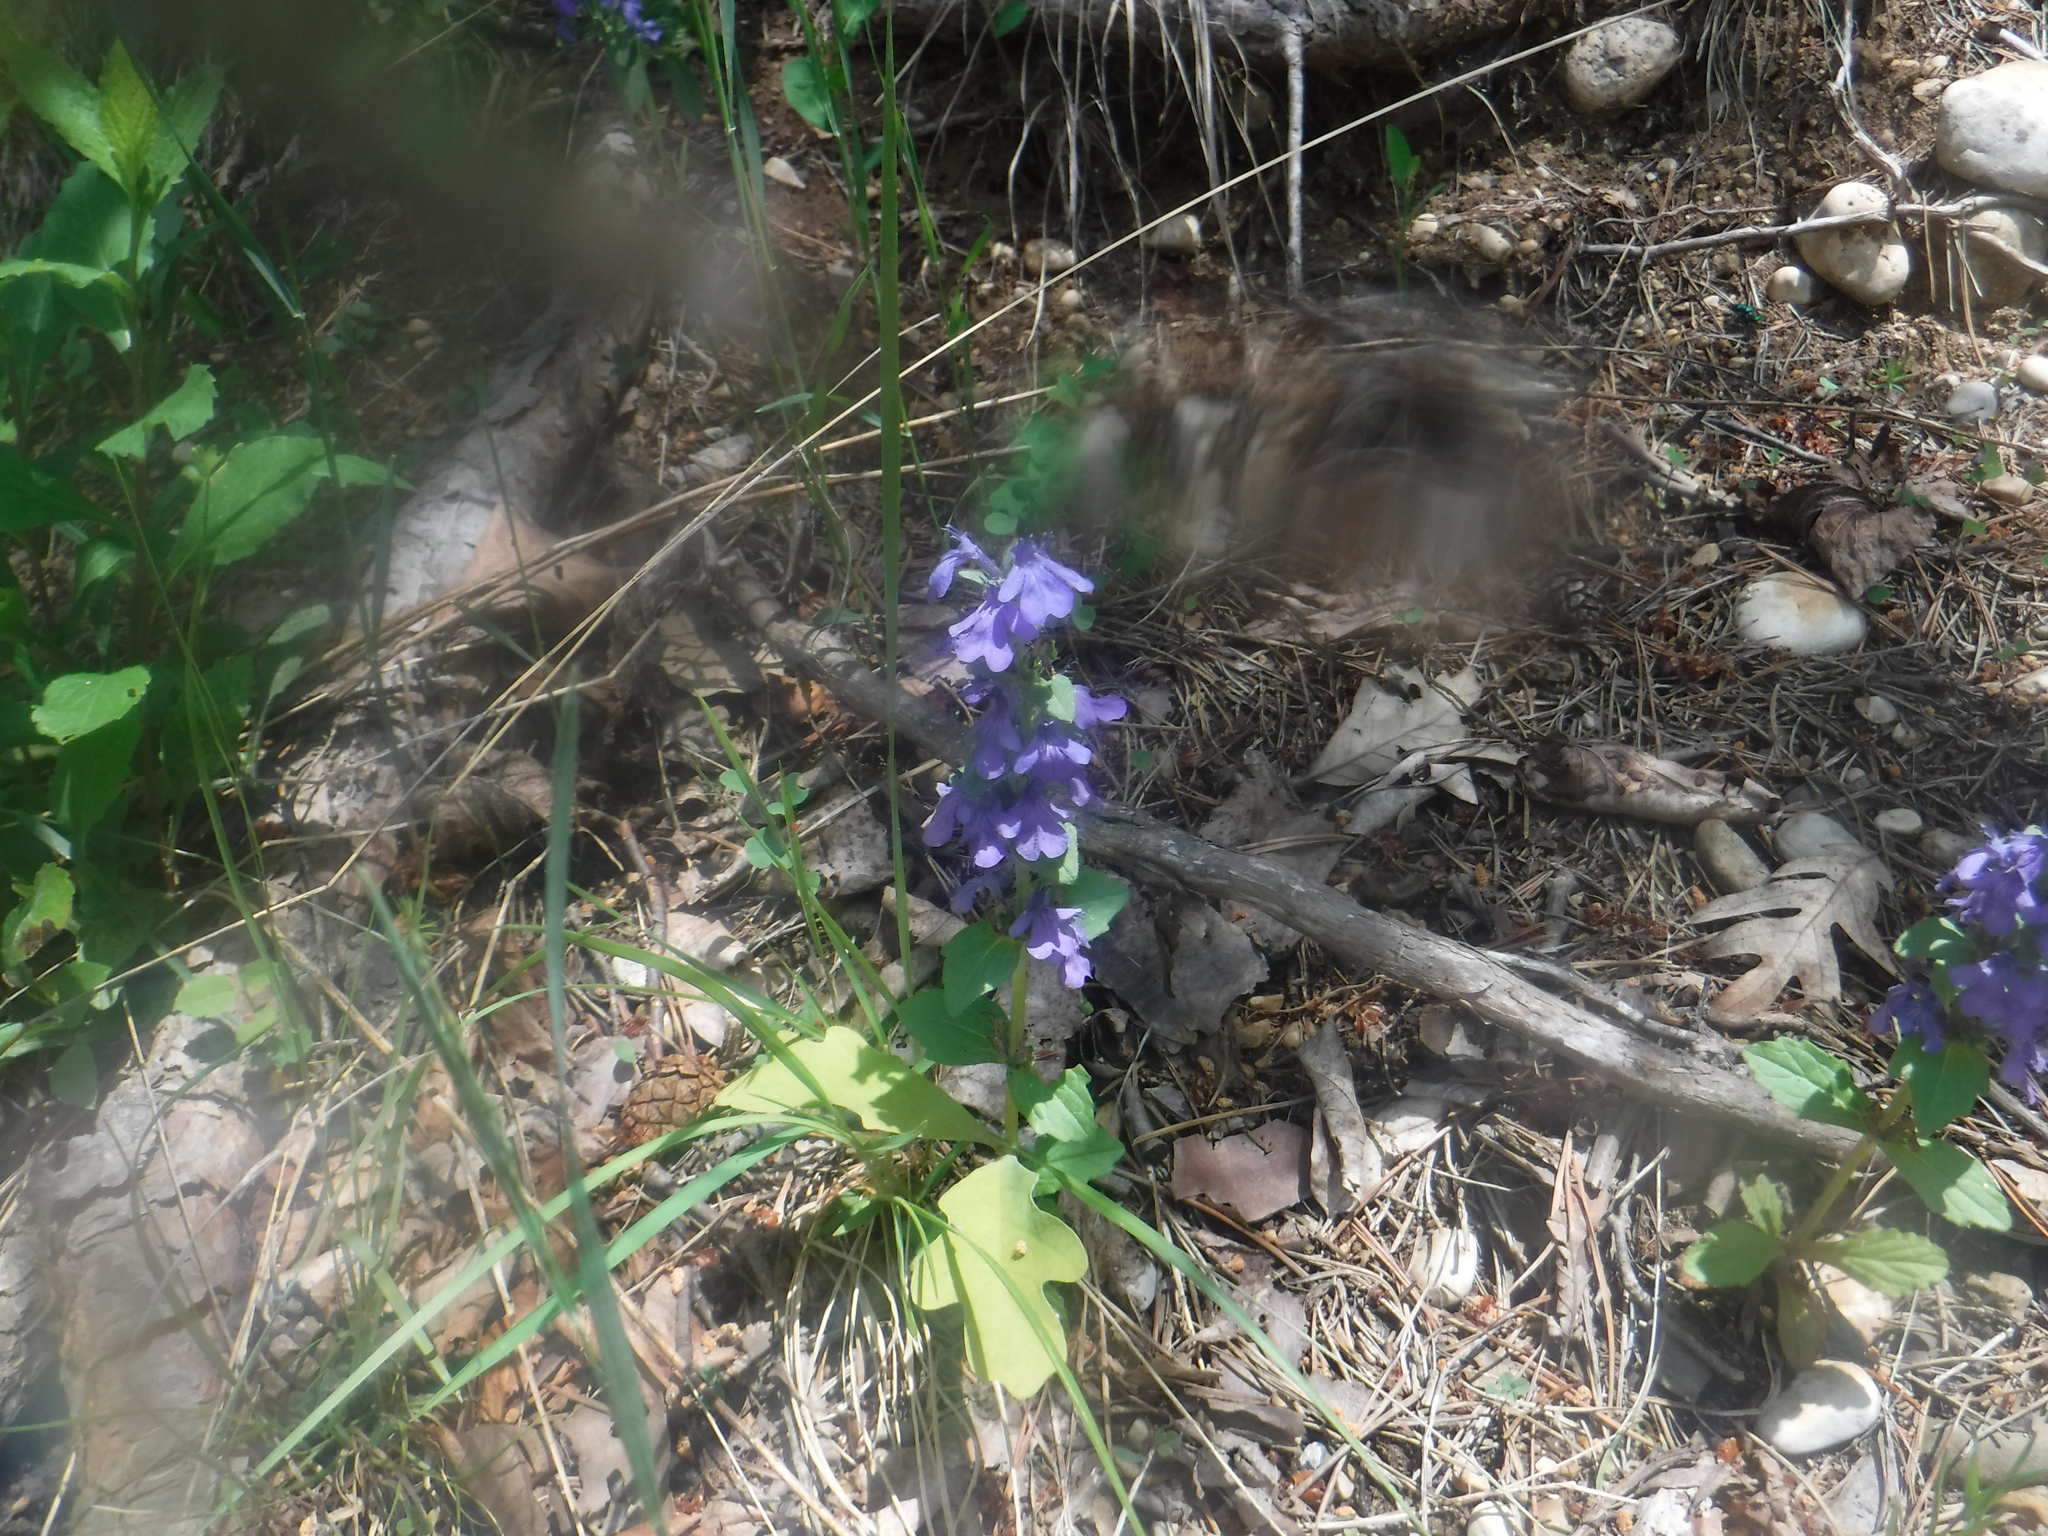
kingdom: Plantae
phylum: Tracheophyta
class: Magnoliopsida
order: Lamiales
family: Lamiaceae
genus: Ajuga
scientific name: Ajuga reptans
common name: Bugle
